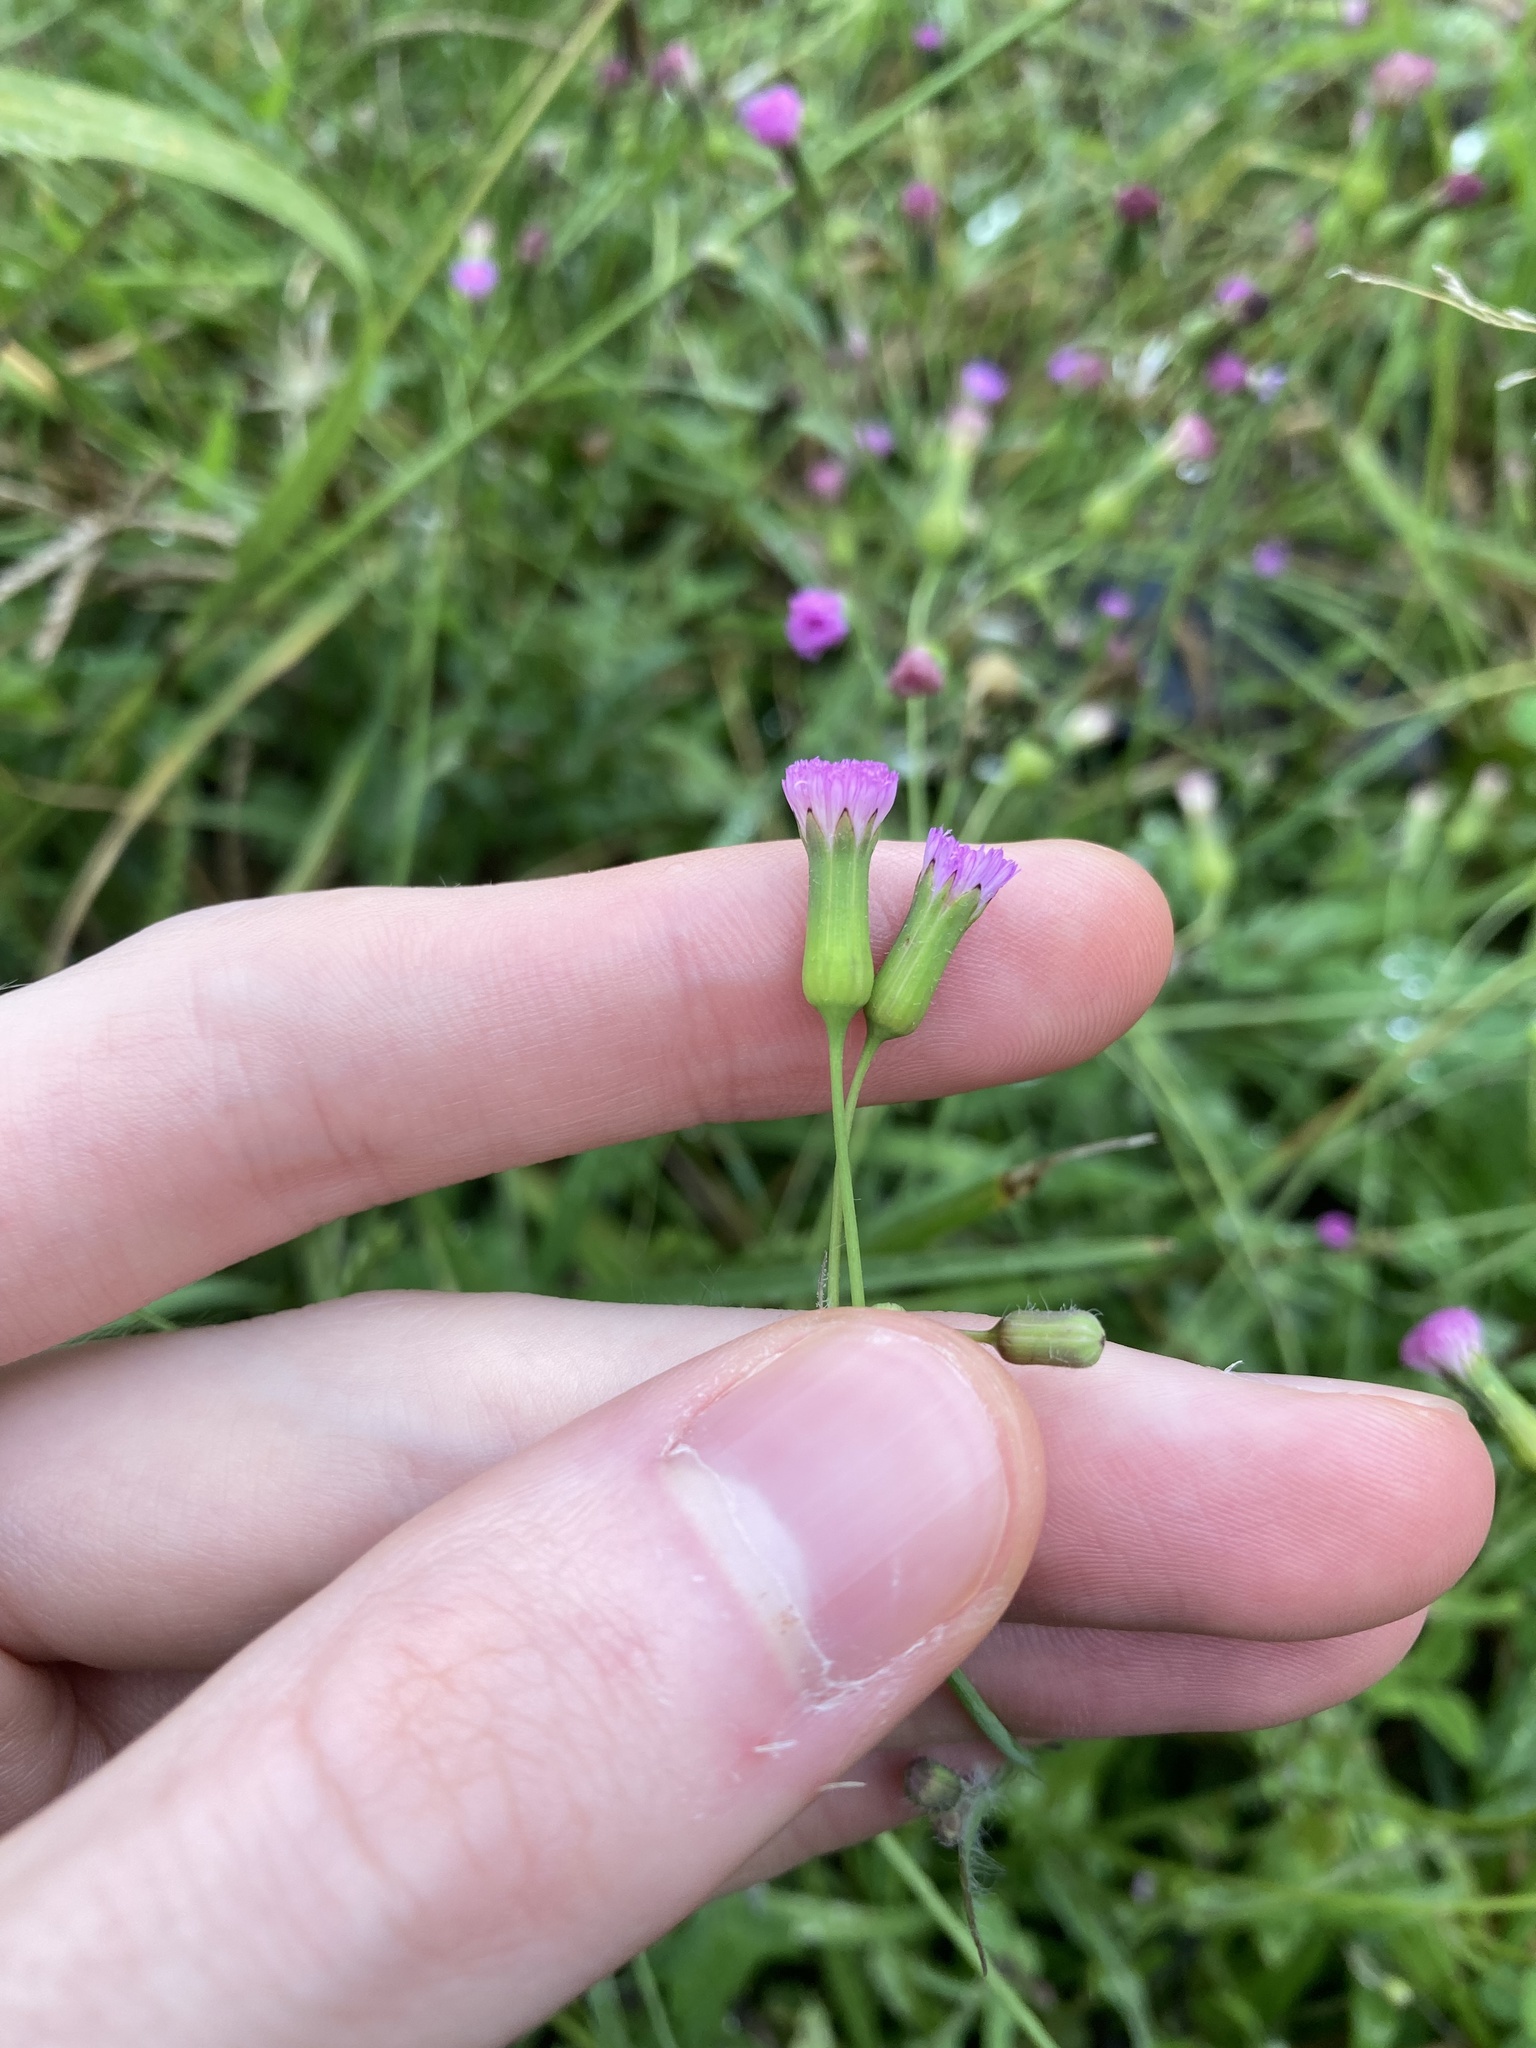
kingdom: Plantae
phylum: Tracheophyta
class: Magnoliopsida
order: Asterales
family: Asteraceae
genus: Emilia
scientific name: Emilia javanica
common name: Tassel-flower
